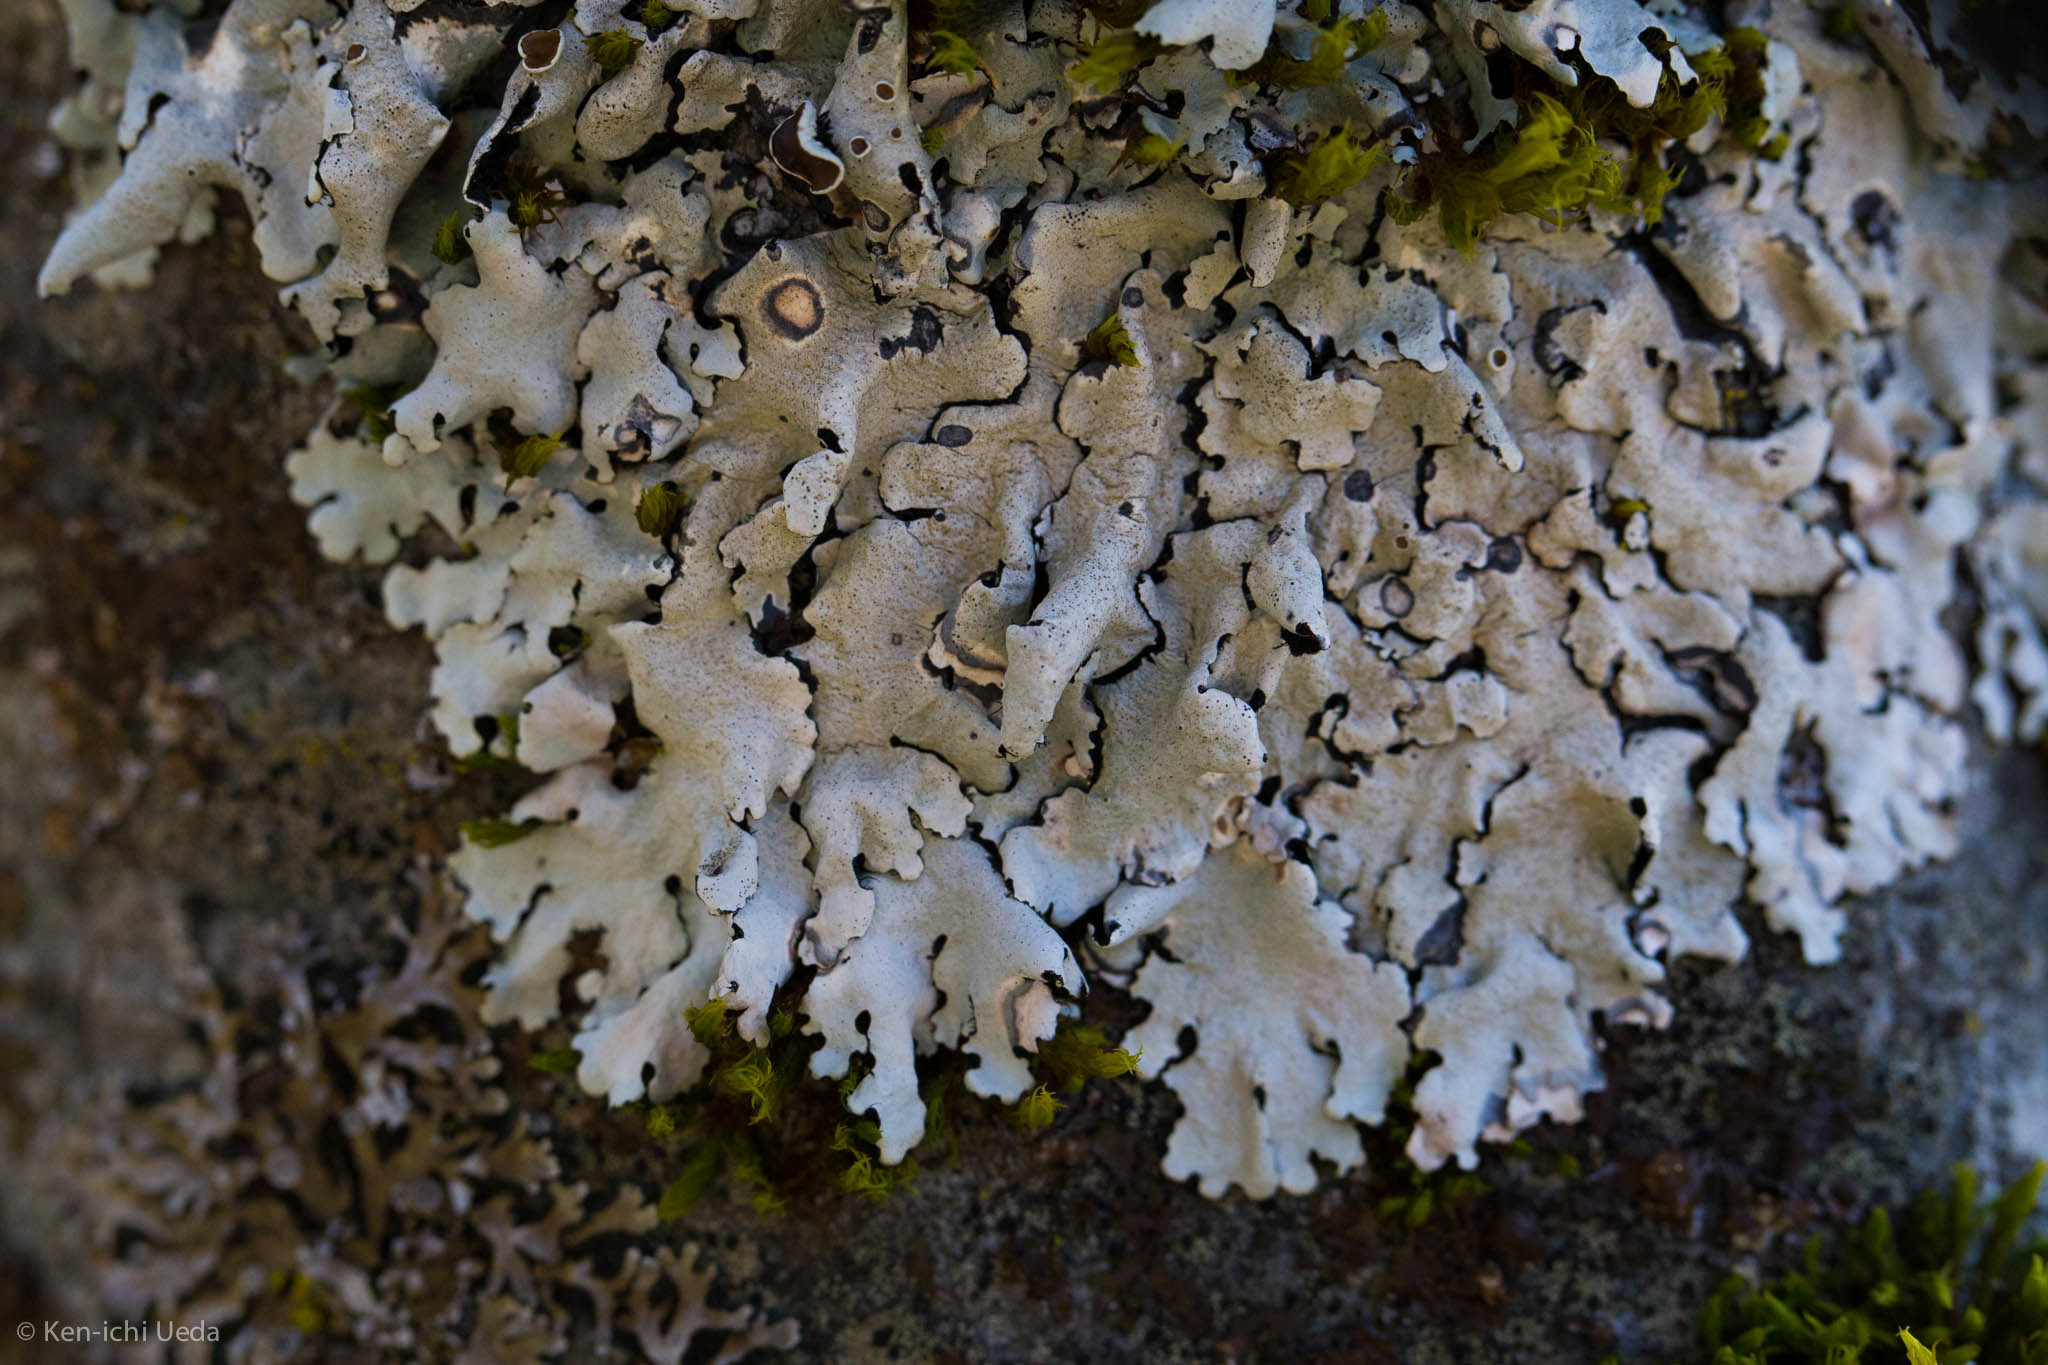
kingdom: Fungi
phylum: Ascomycota
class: Lecanoromycetes
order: Lecanorales
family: Parmeliaceae
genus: Parmelina
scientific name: Parmelina coleae
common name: Fringed shield lichen
